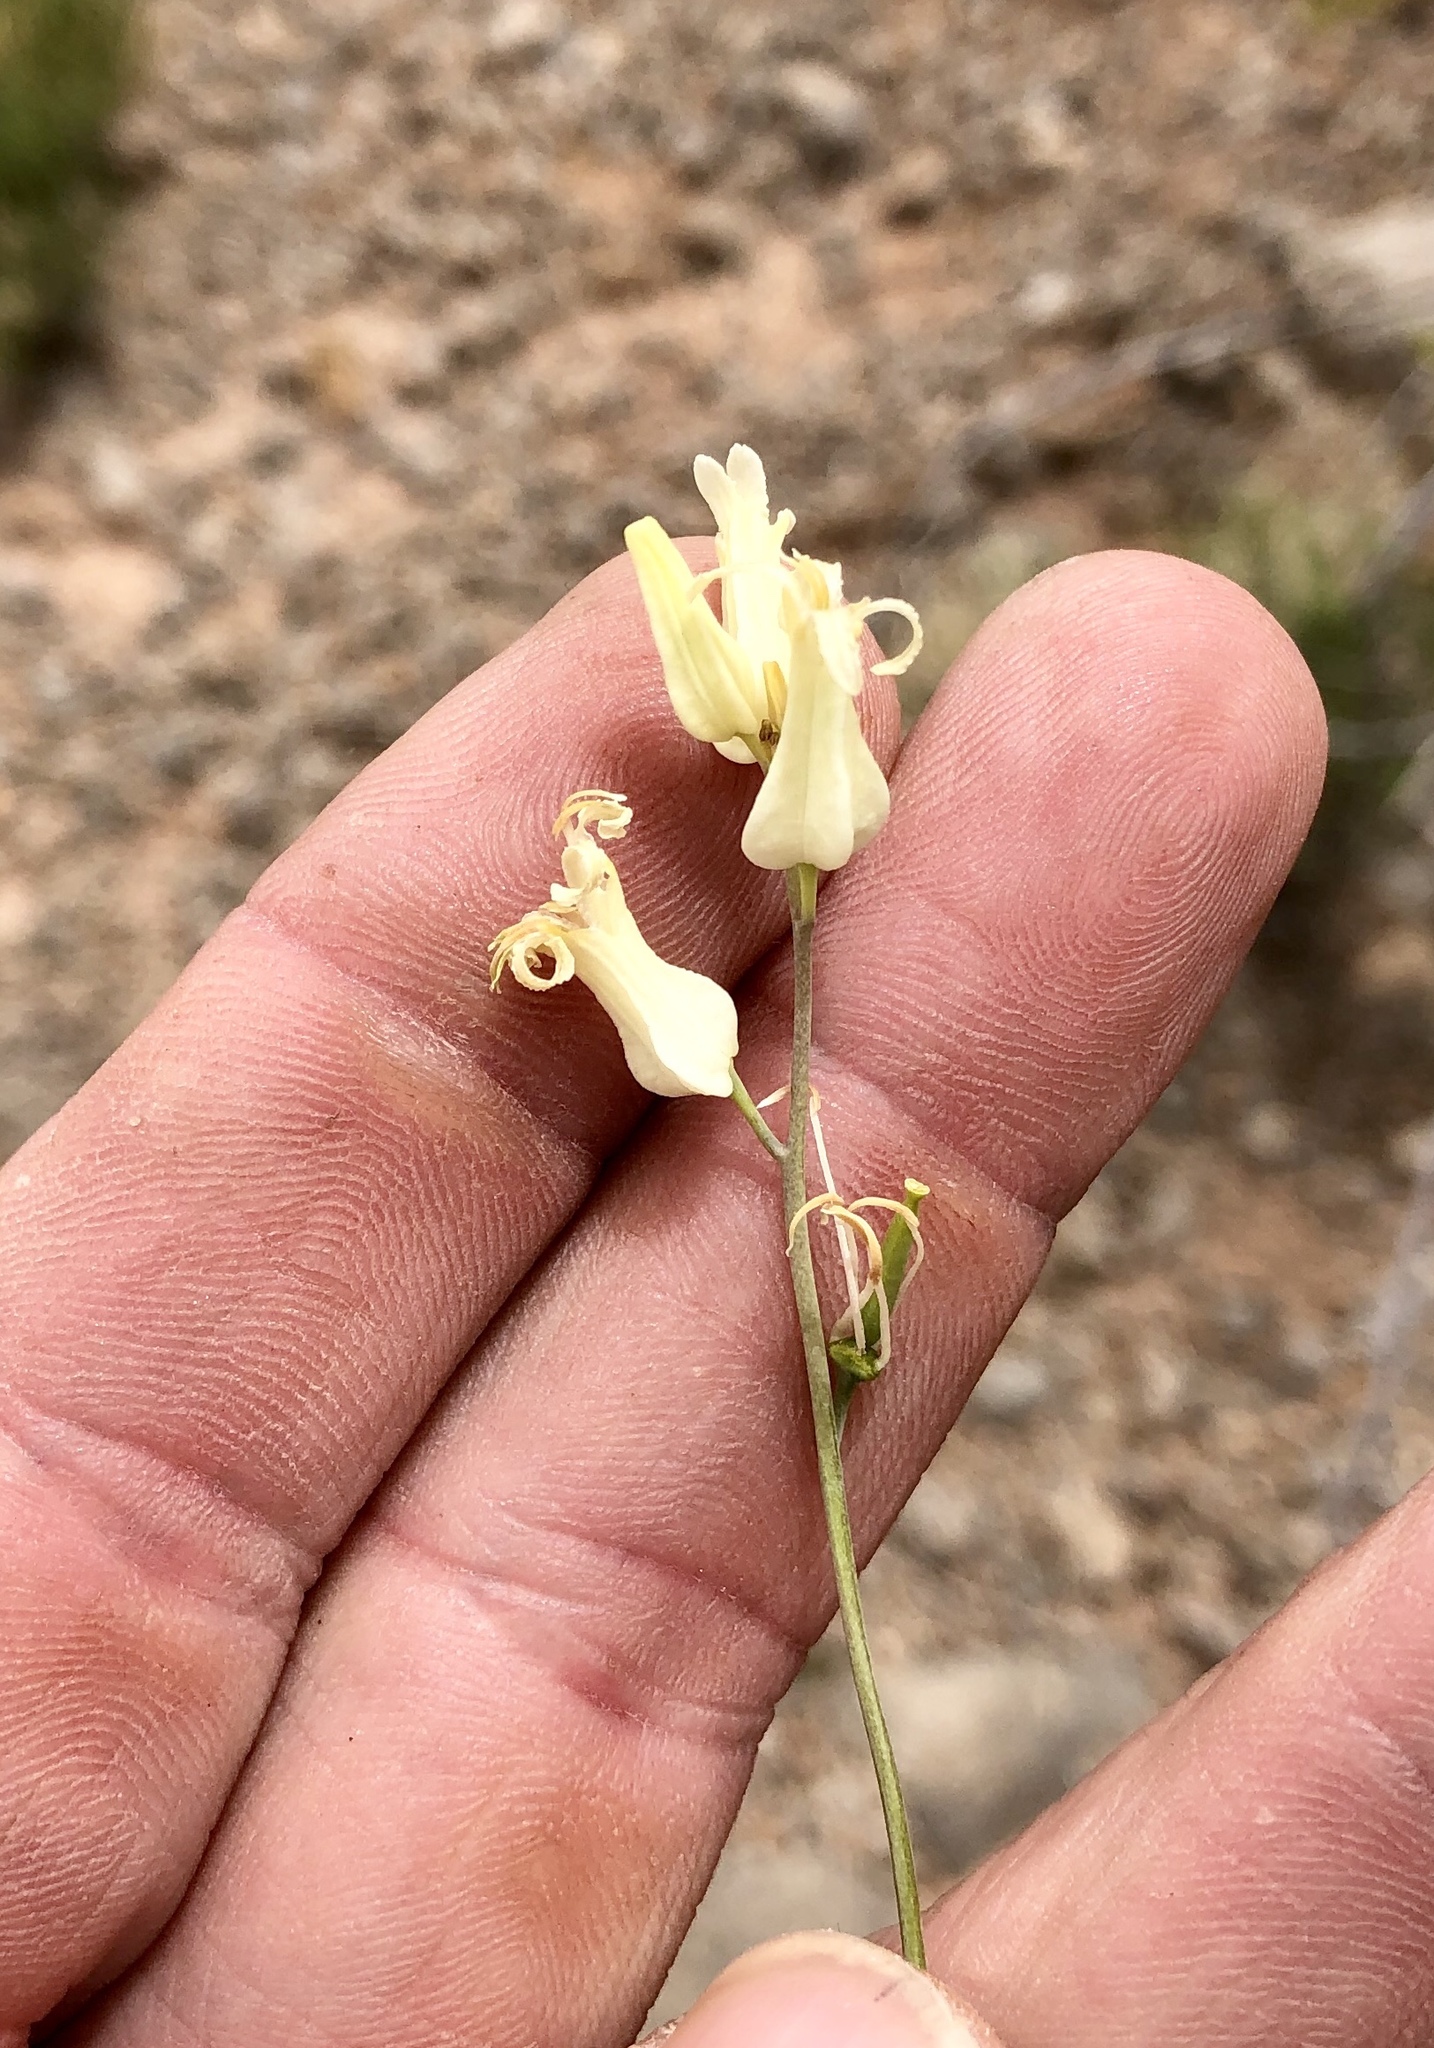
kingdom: Plantae
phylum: Tracheophyta
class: Magnoliopsida
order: Brassicales
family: Brassicaceae
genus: Streptanthus
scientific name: Streptanthus carinatus
